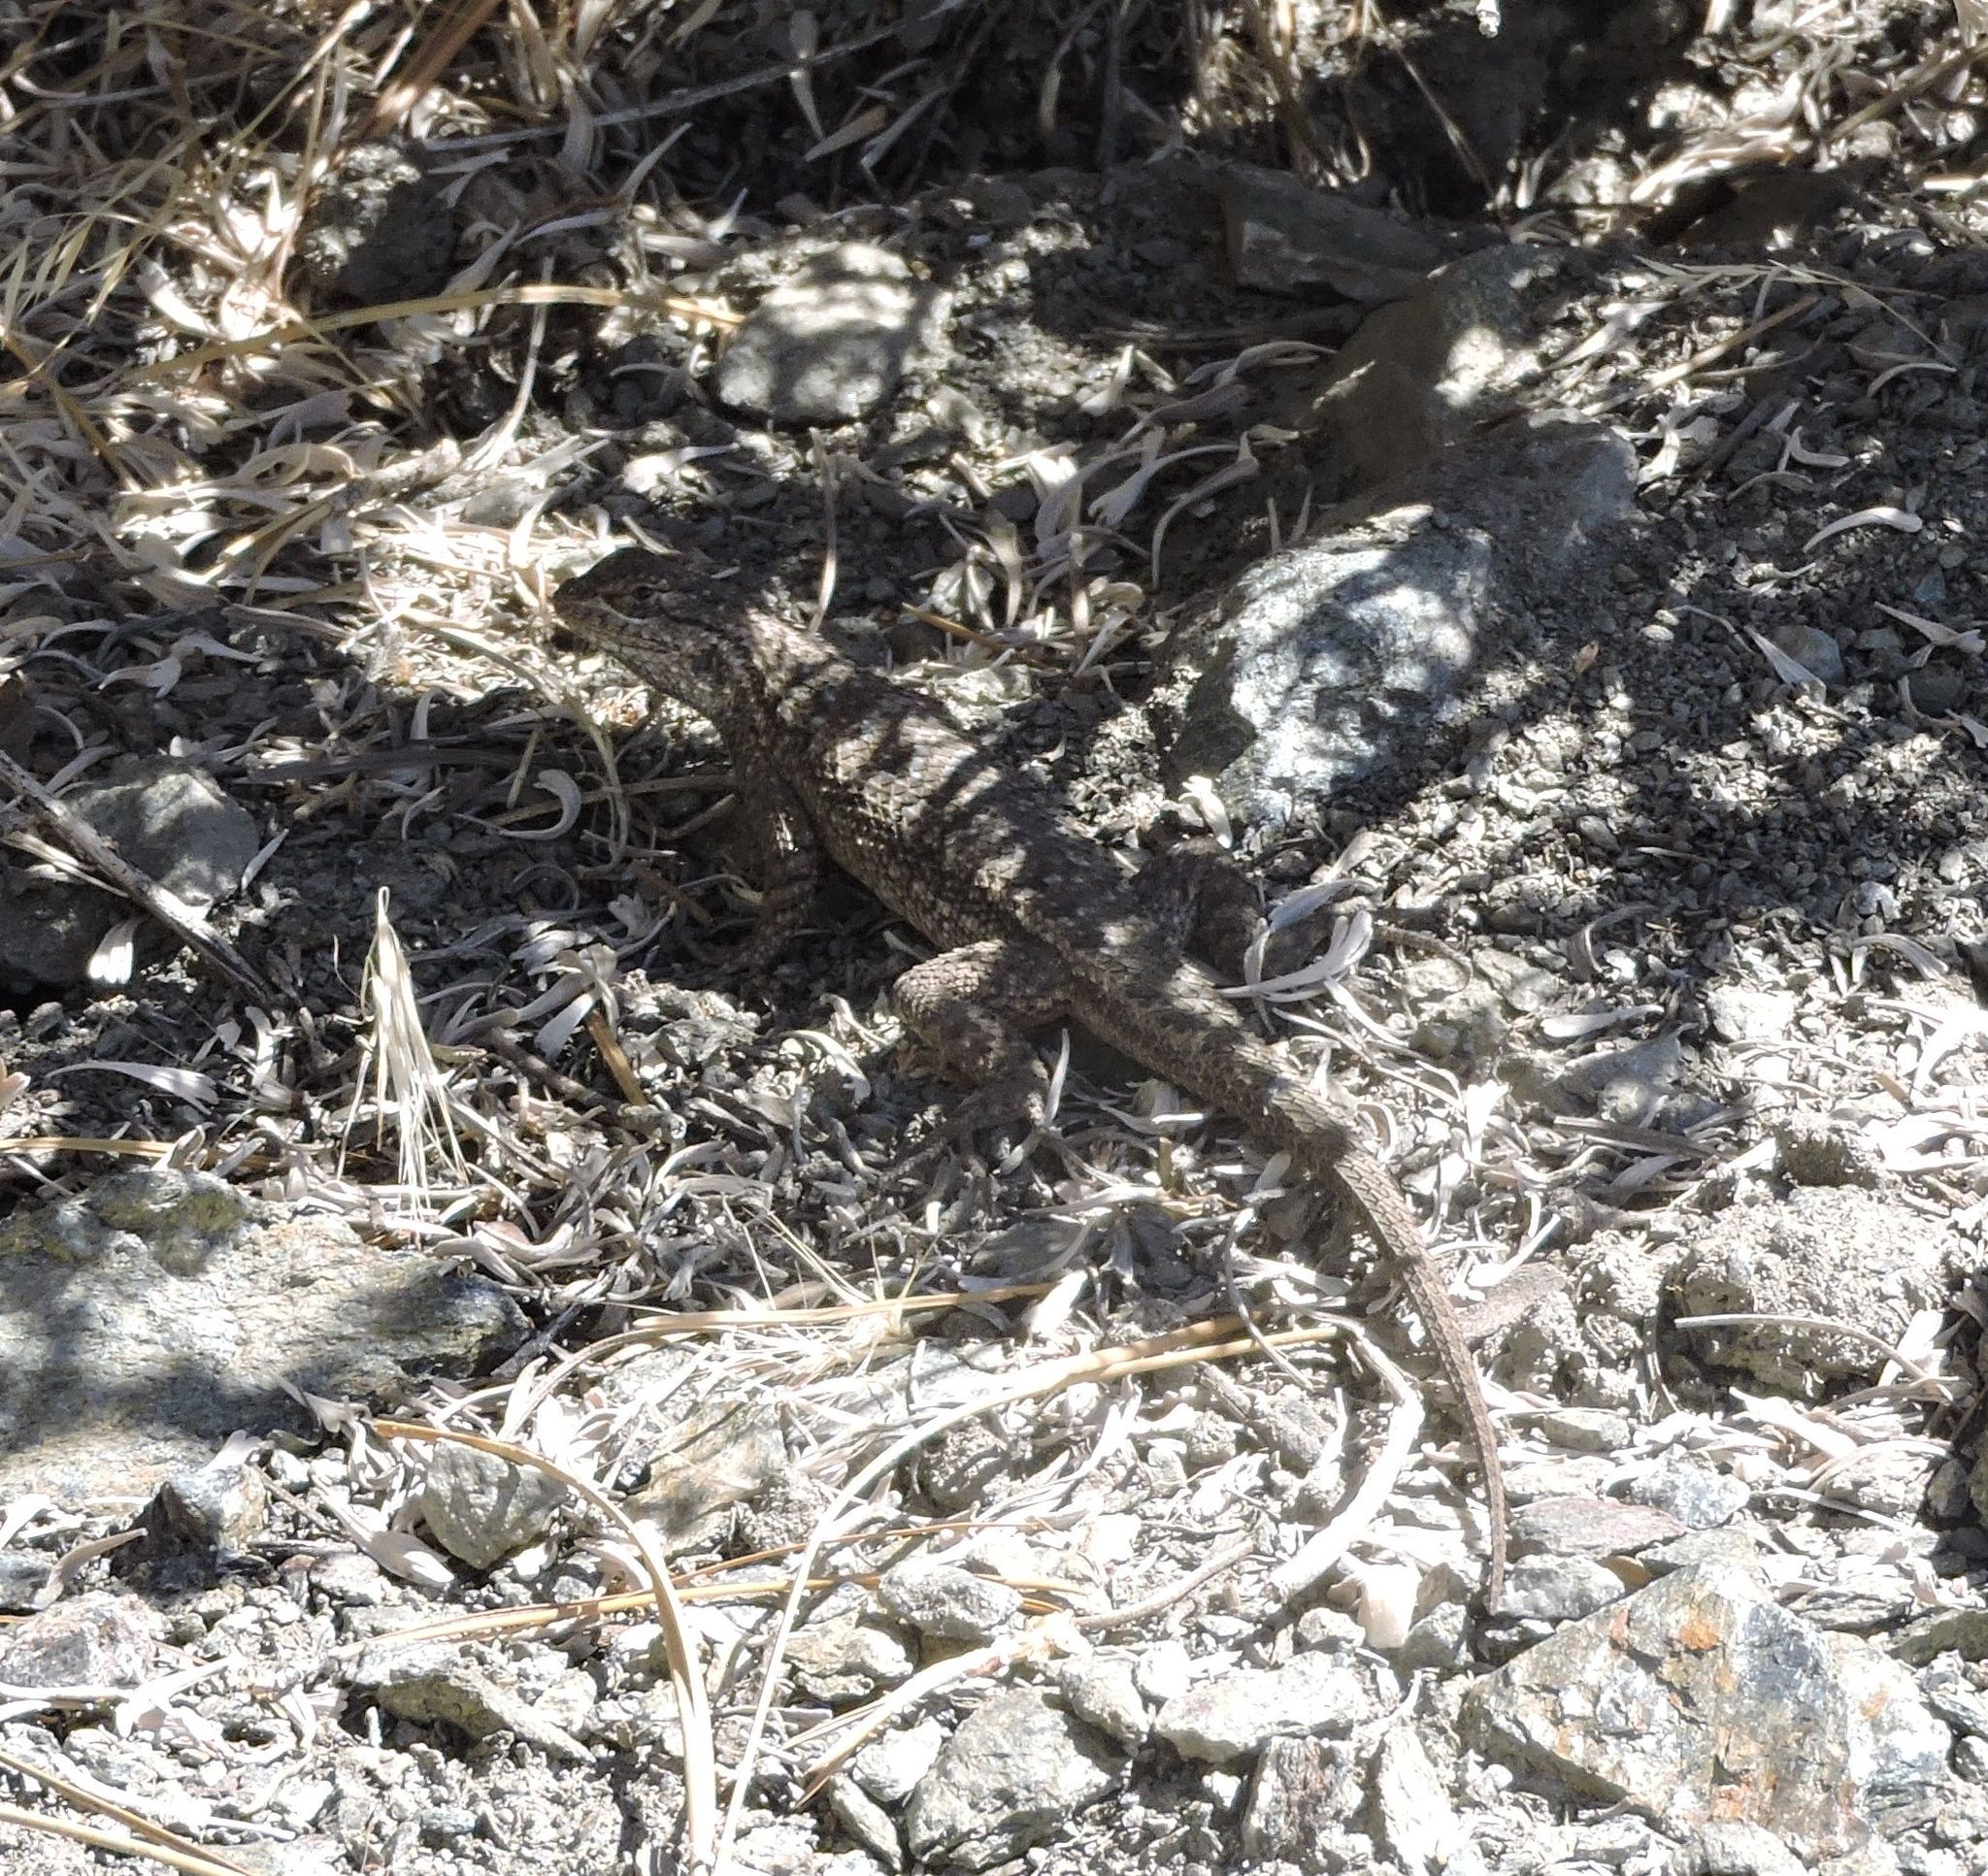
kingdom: Animalia
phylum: Chordata
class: Squamata
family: Phrynosomatidae
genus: Sceloporus
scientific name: Sceloporus occidentalis
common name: Western fence lizard
